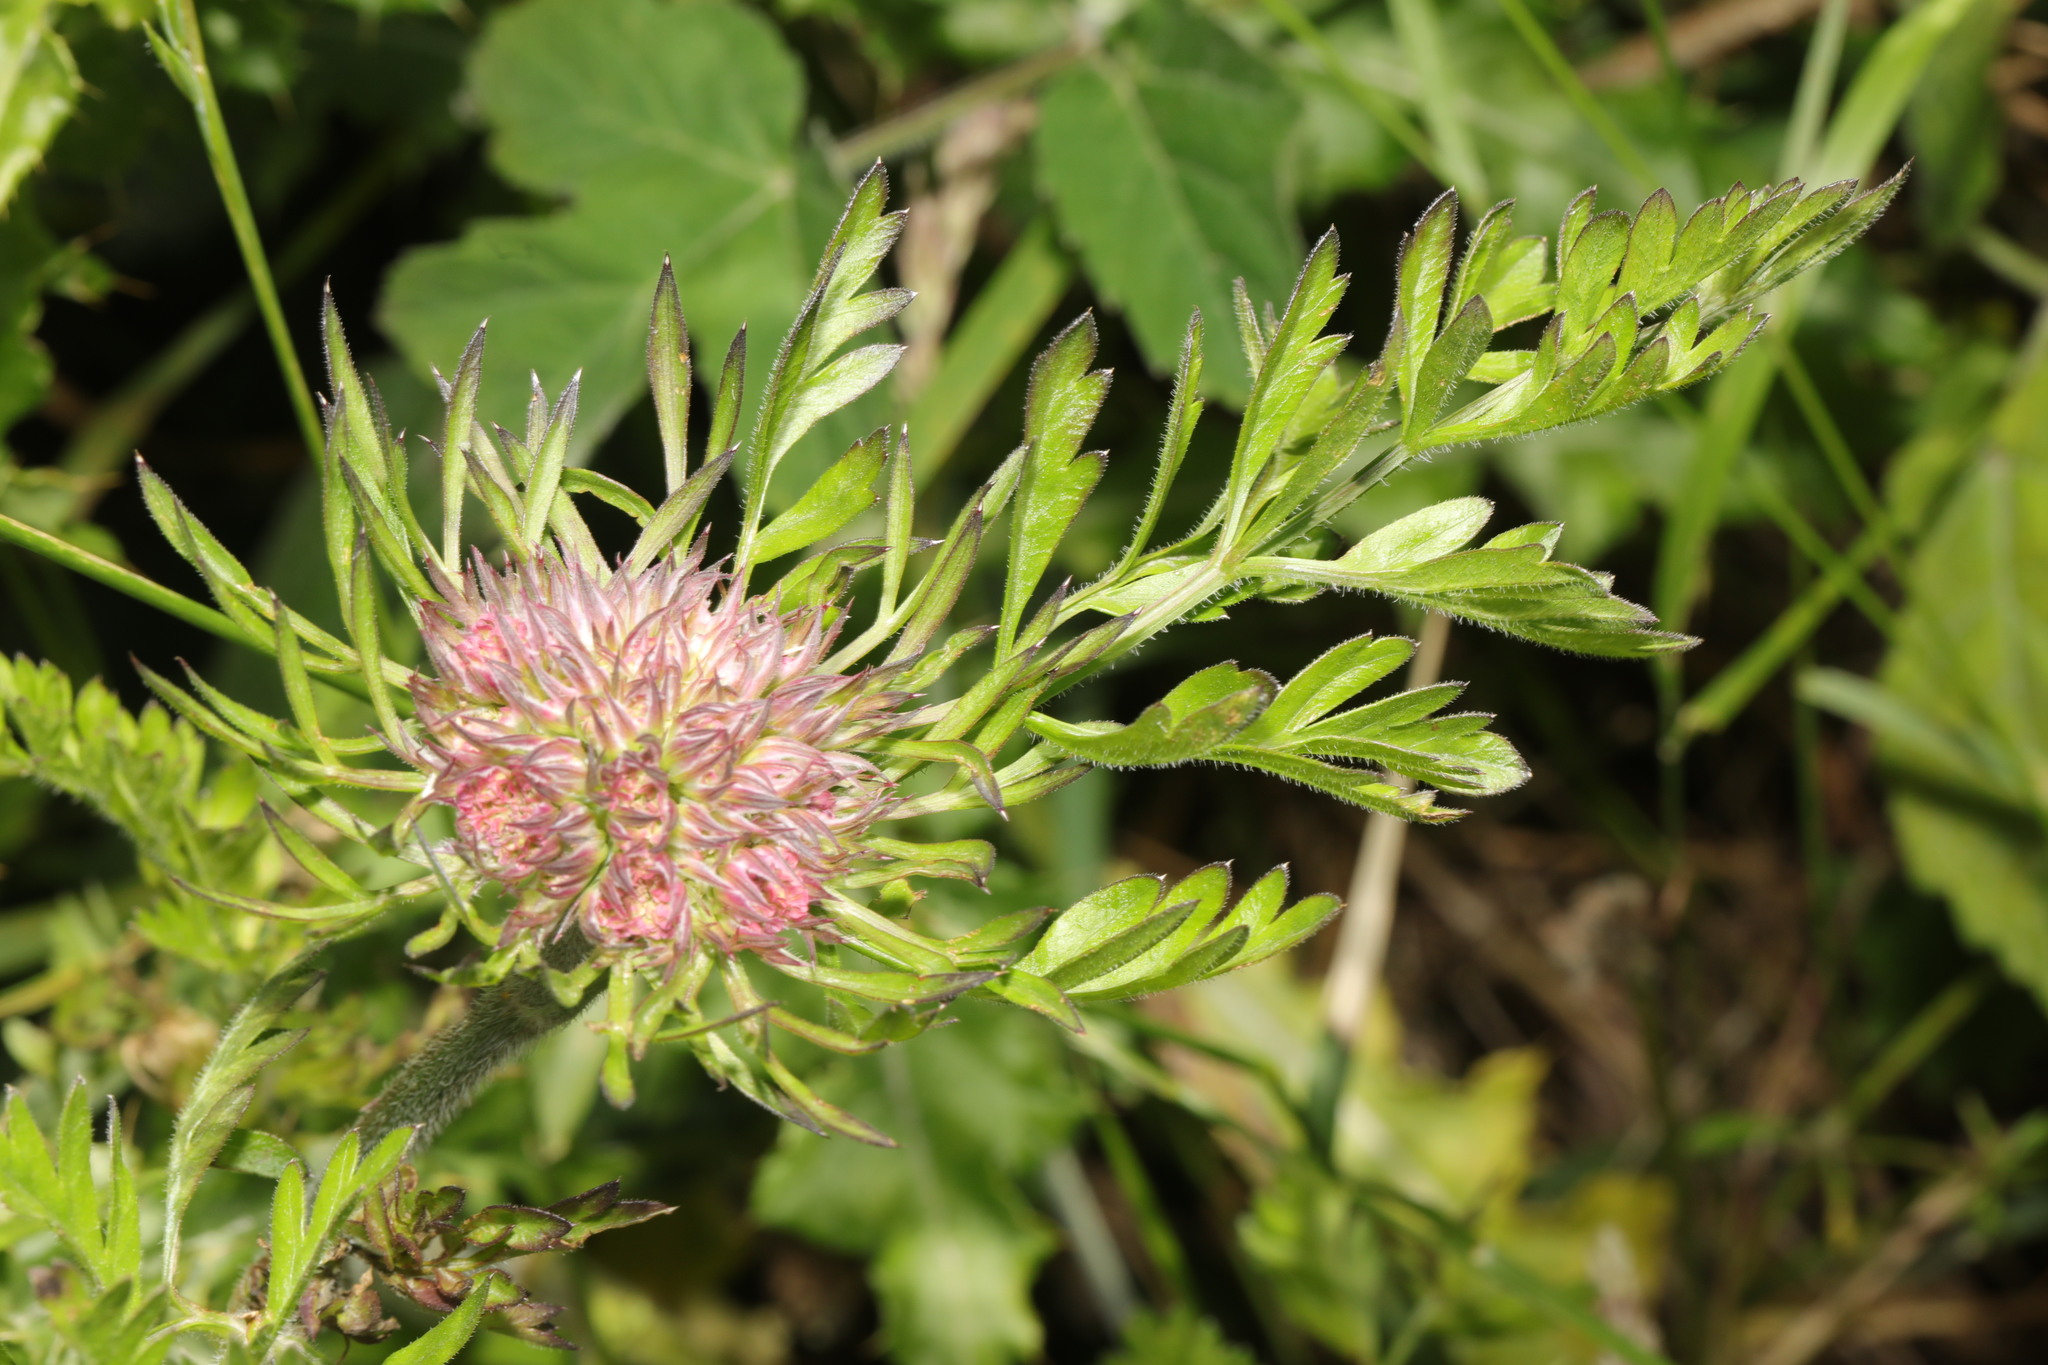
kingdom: Plantae
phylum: Tracheophyta
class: Magnoliopsida
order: Apiales
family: Apiaceae
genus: Daucus
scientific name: Daucus carota
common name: Wild carrot
